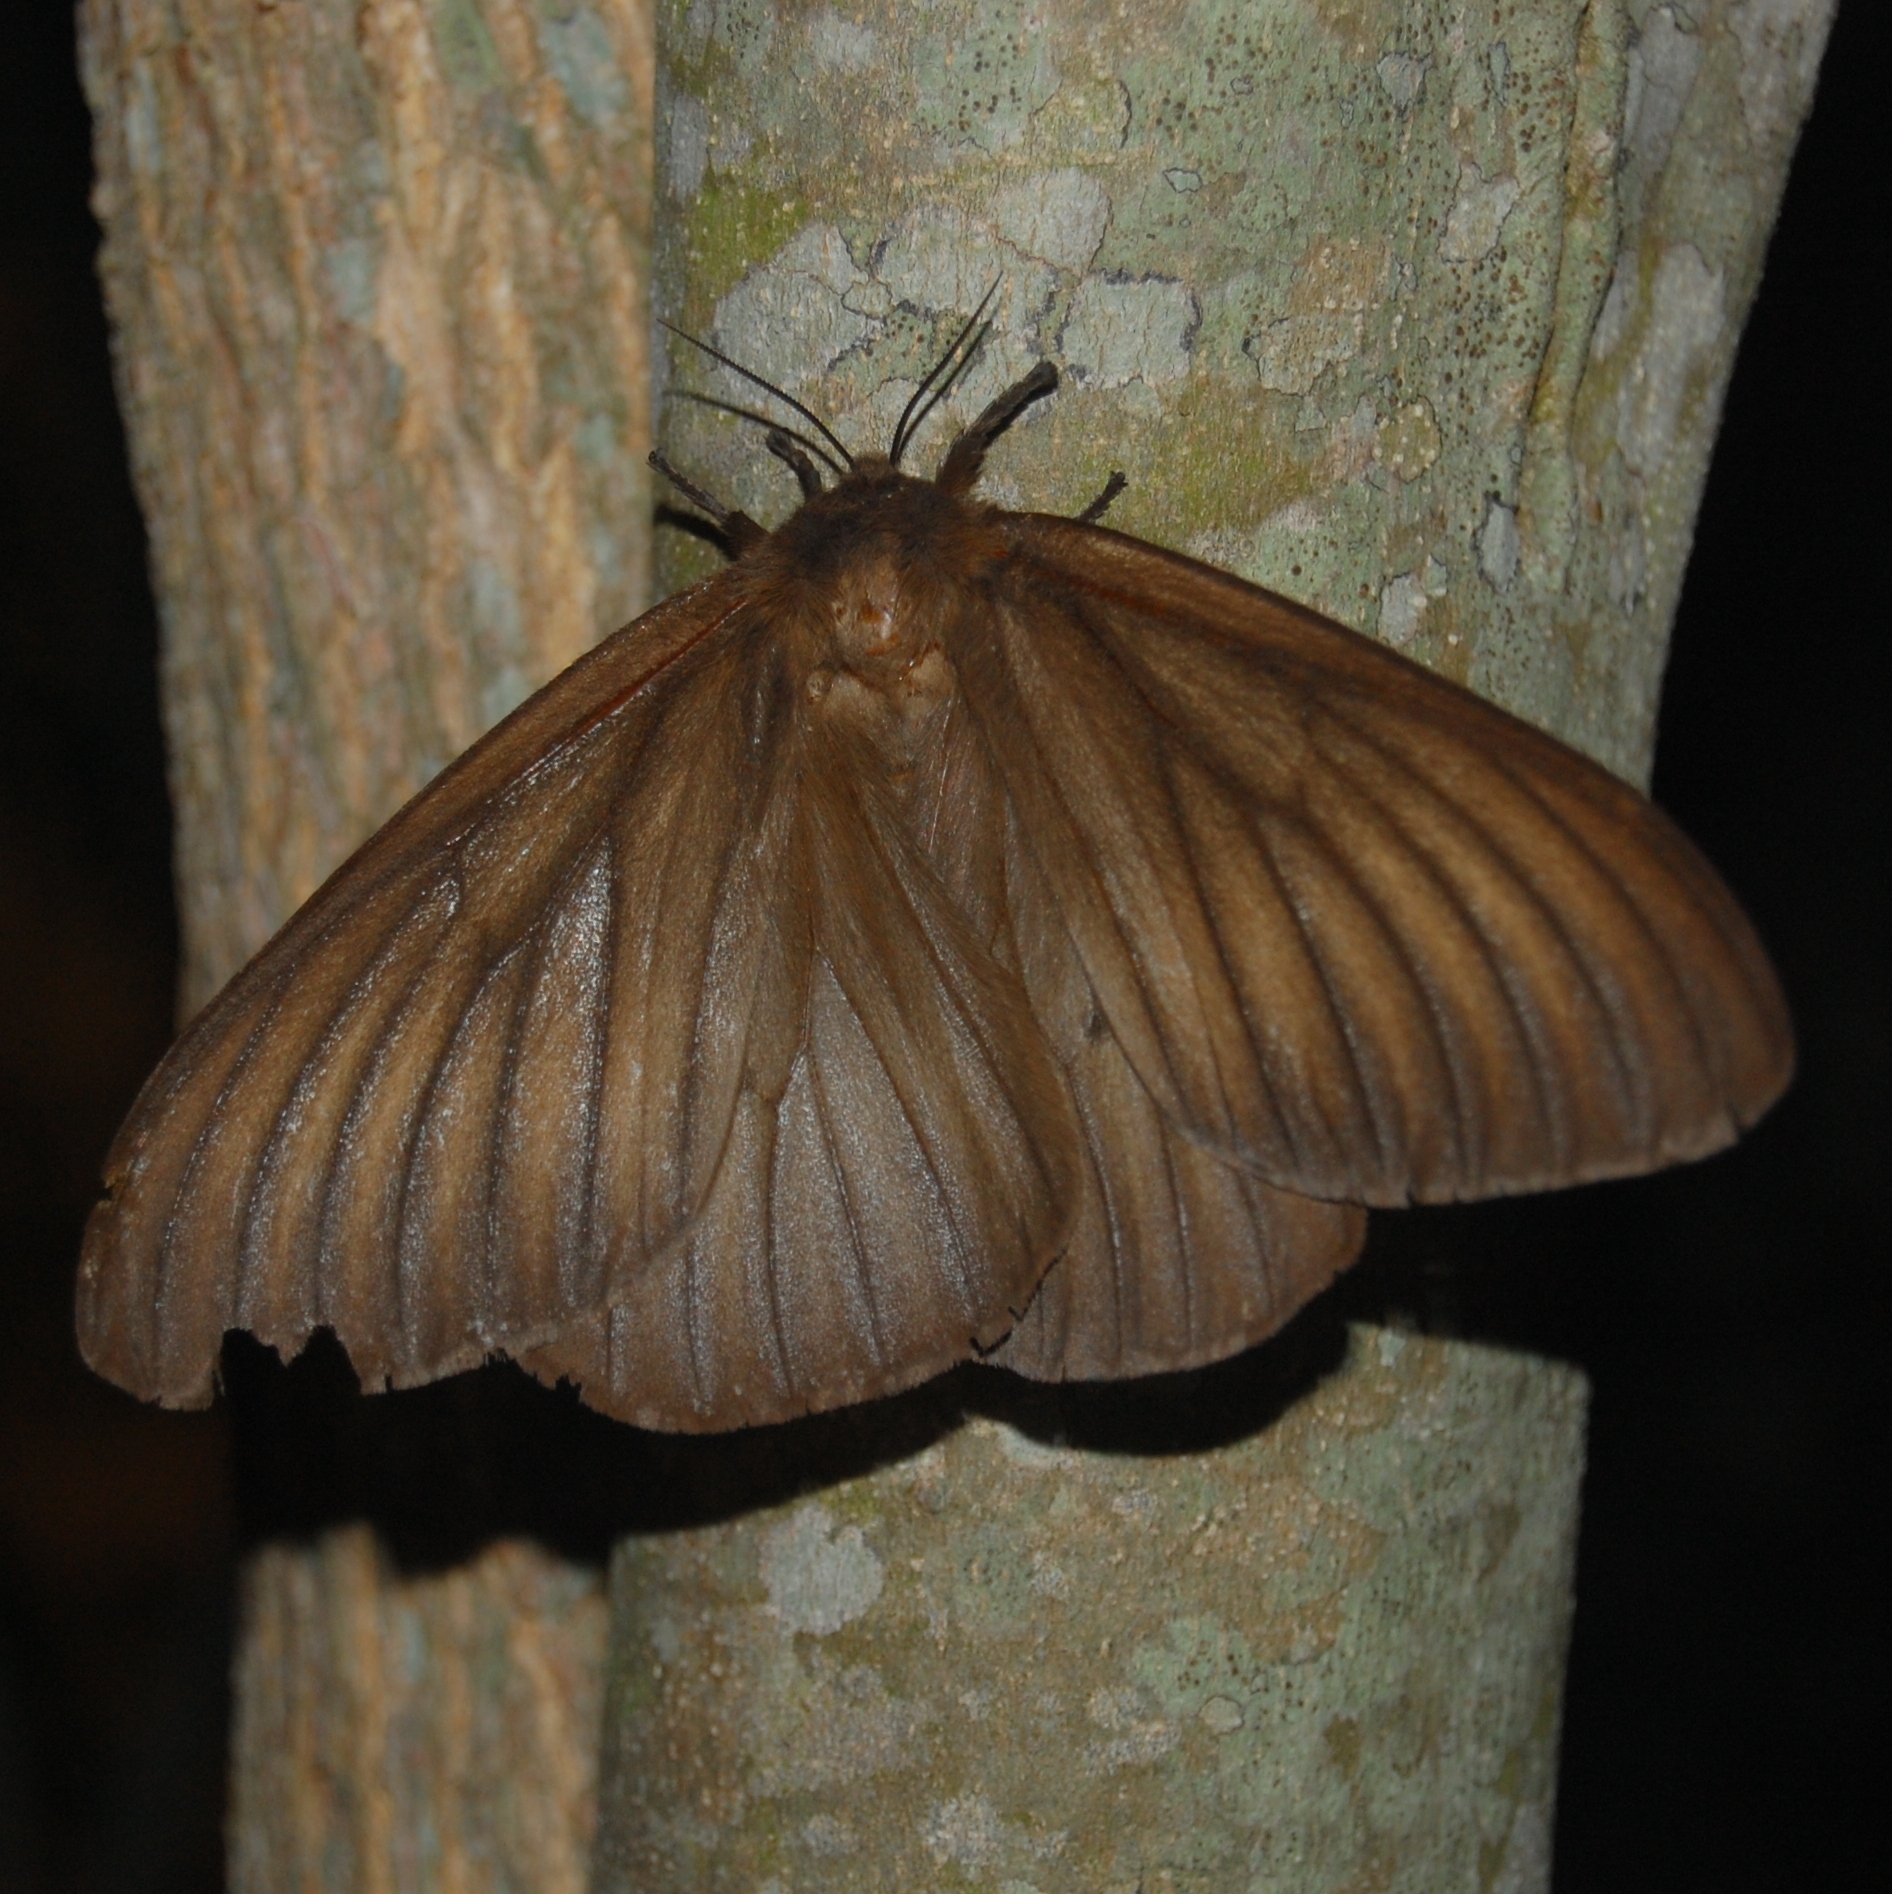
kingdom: Animalia
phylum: Arthropoda
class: Insecta
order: Lepidoptera
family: Saturniidae
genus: Ithomisa
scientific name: Ithomisa kinkelini
